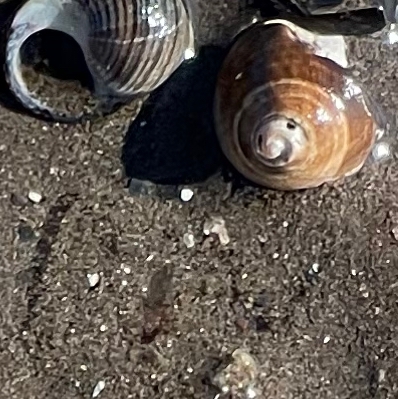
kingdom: Animalia
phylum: Mollusca
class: Gastropoda
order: Littorinimorpha
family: Littorinidae
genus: Littorina
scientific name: Littorina littorea
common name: Common periwinkle
